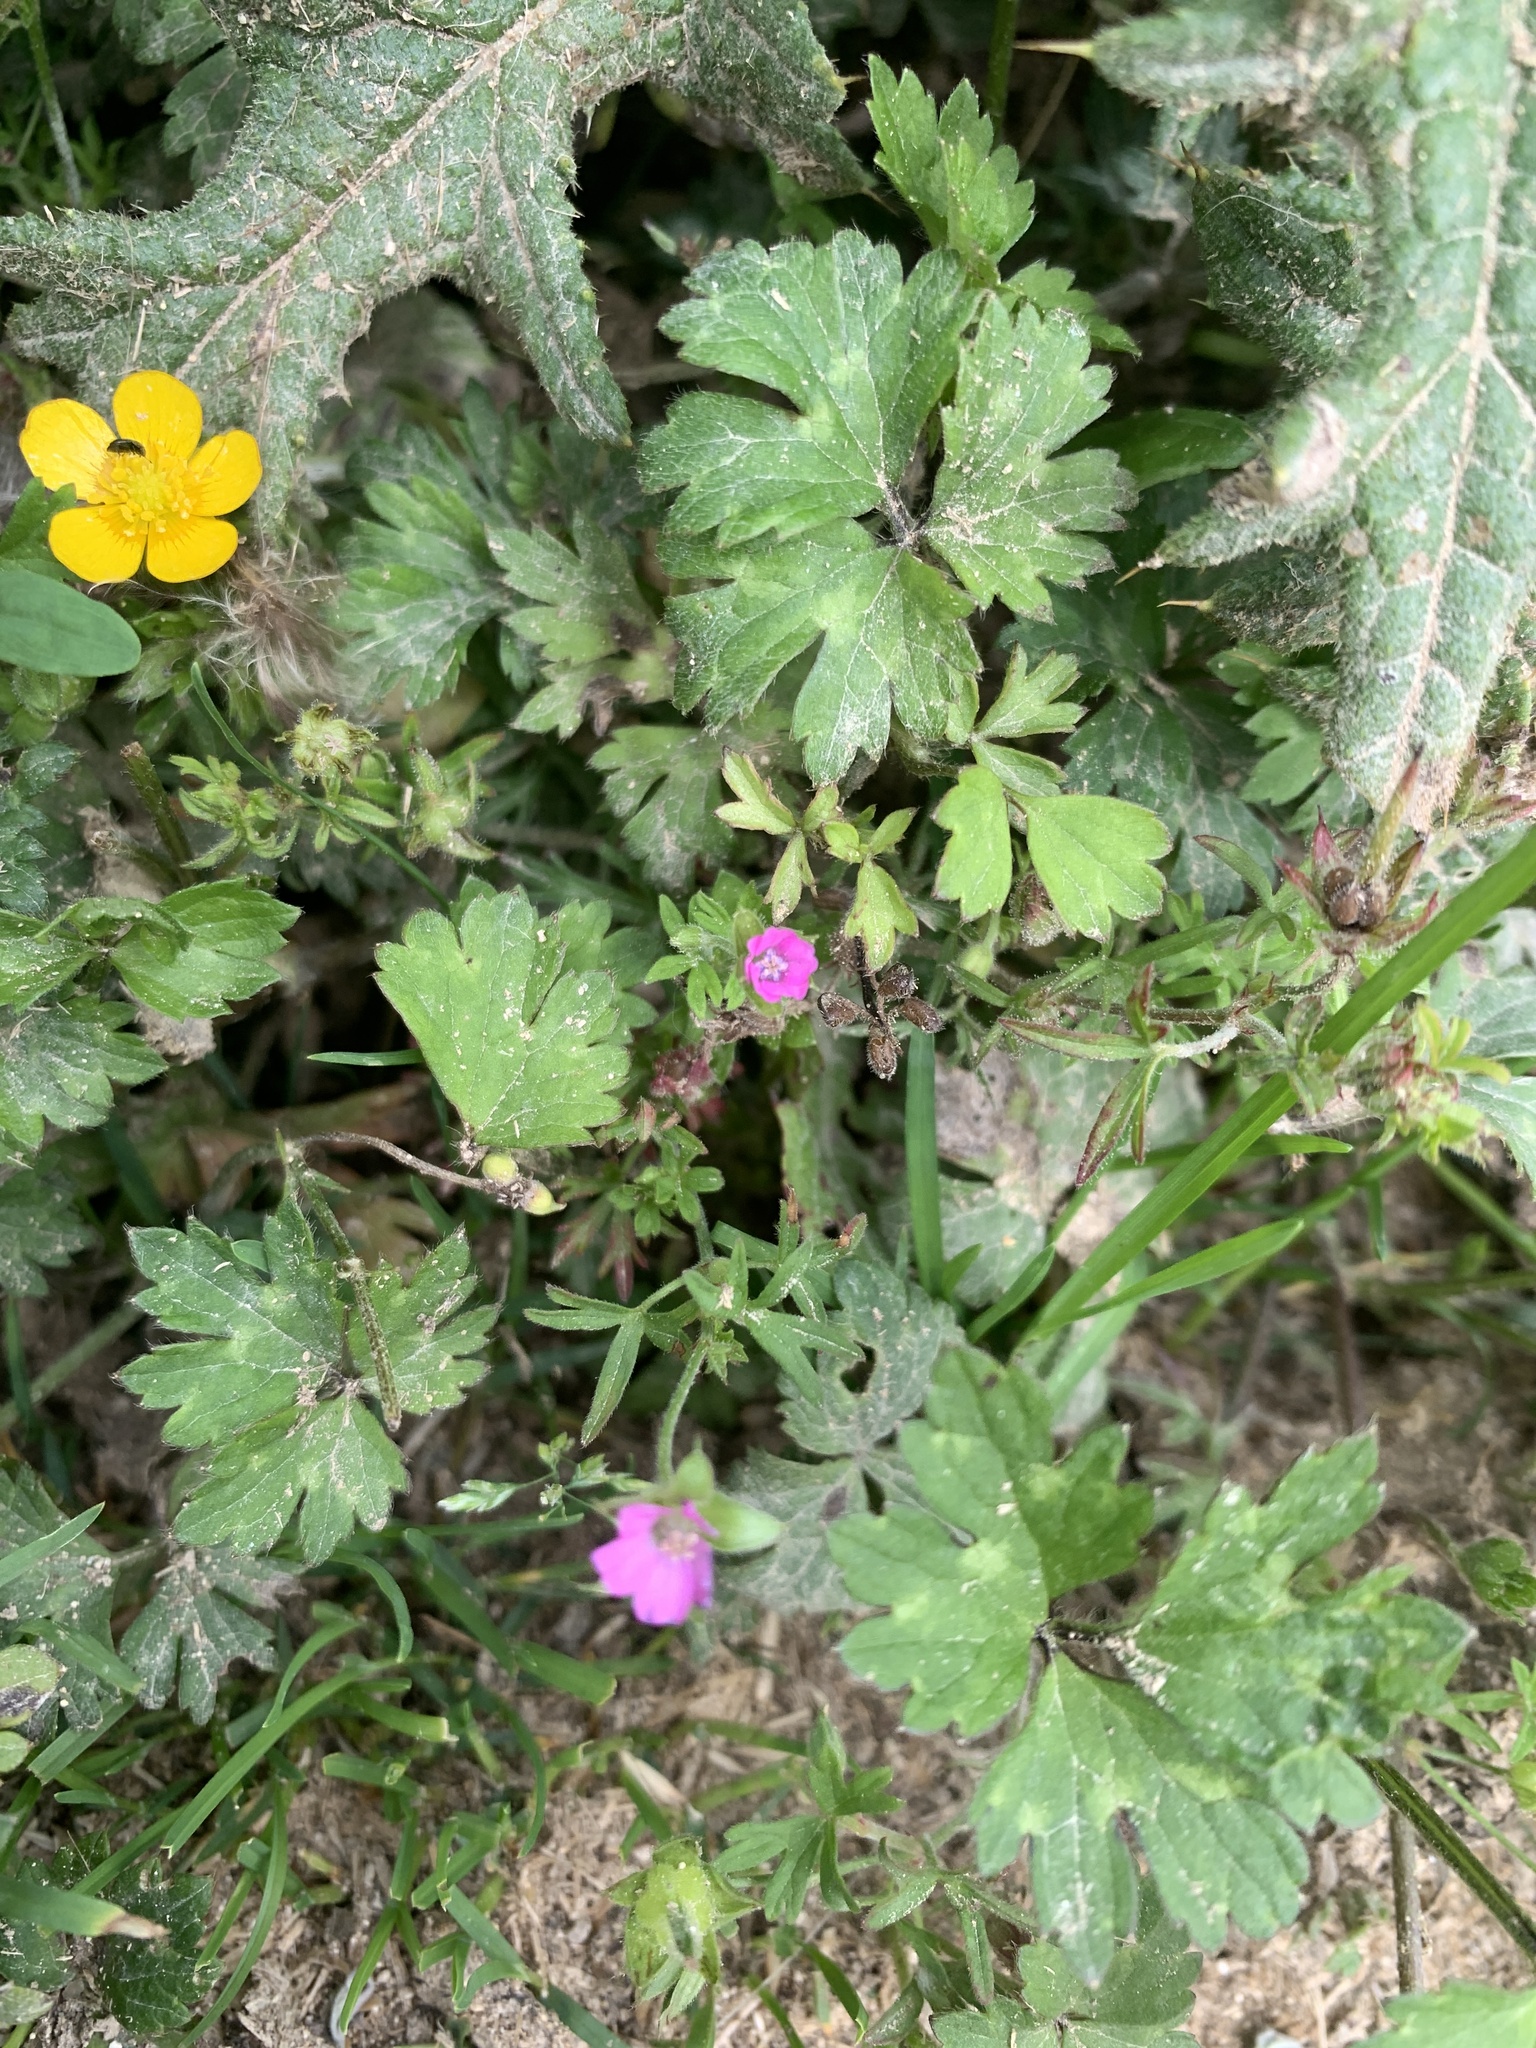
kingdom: Plantae
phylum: Tracheophyta
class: Magnoliopsida
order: Geraniales
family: Geraniaceae
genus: Geranium
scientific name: Geranium dissectum
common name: Cut-leaved crane's-bill
